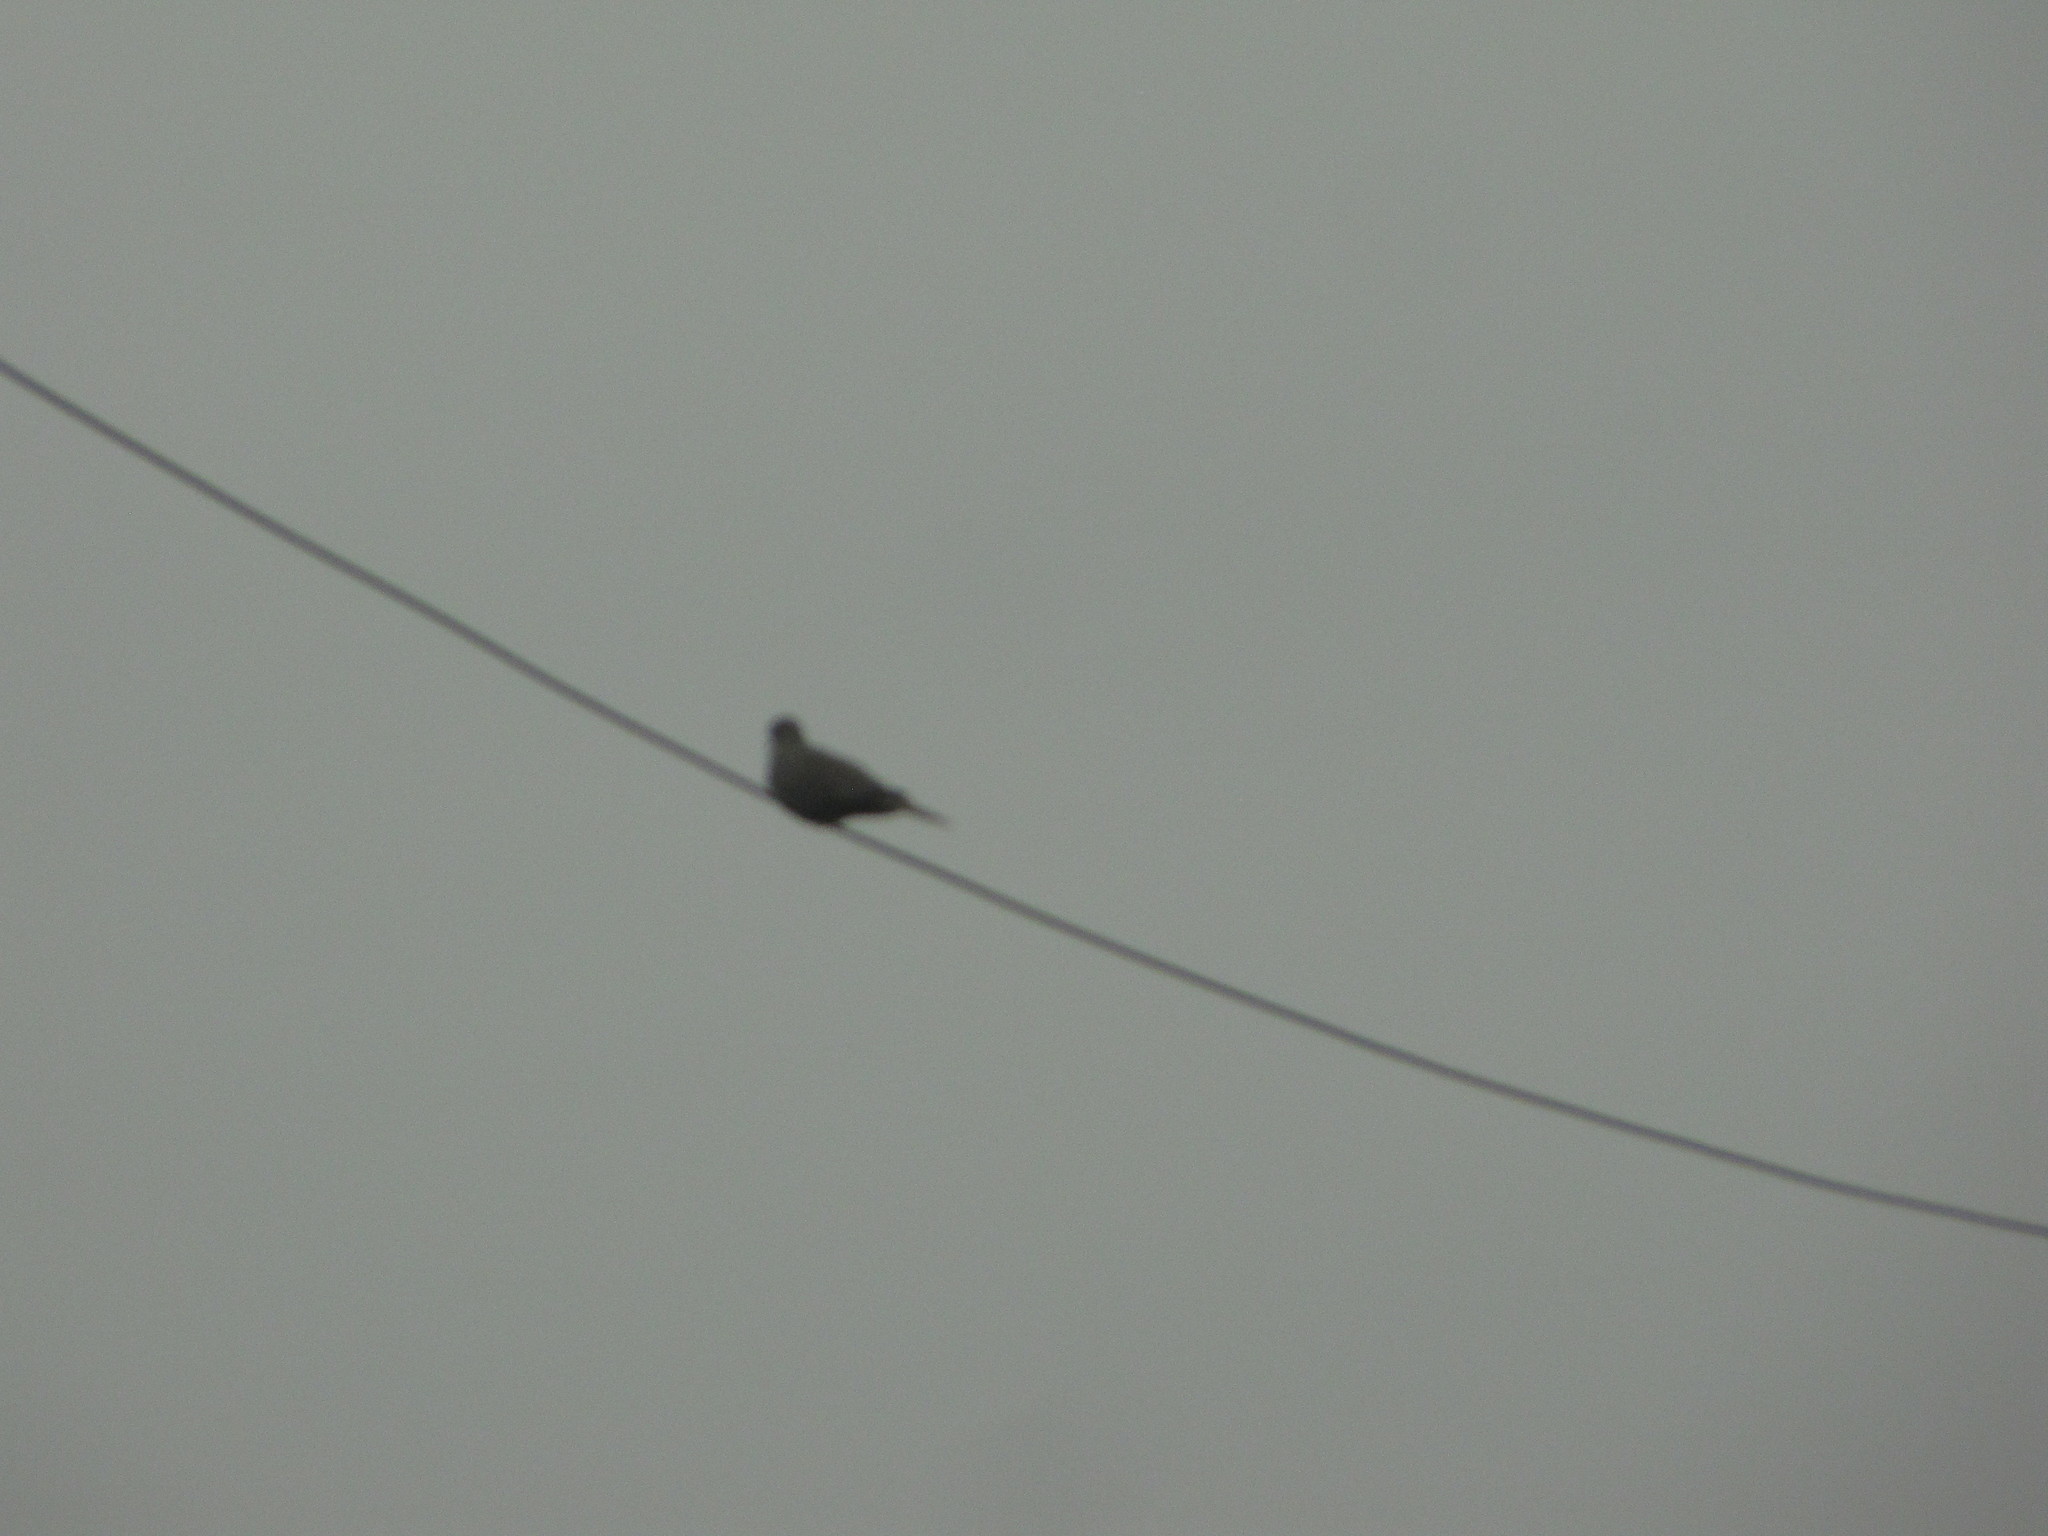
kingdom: Animalia
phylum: Chordata
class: Aves
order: Columbiformes
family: Columbidae
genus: Streptopelia
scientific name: Streptopelia decaocto
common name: Eurasian collared dove
